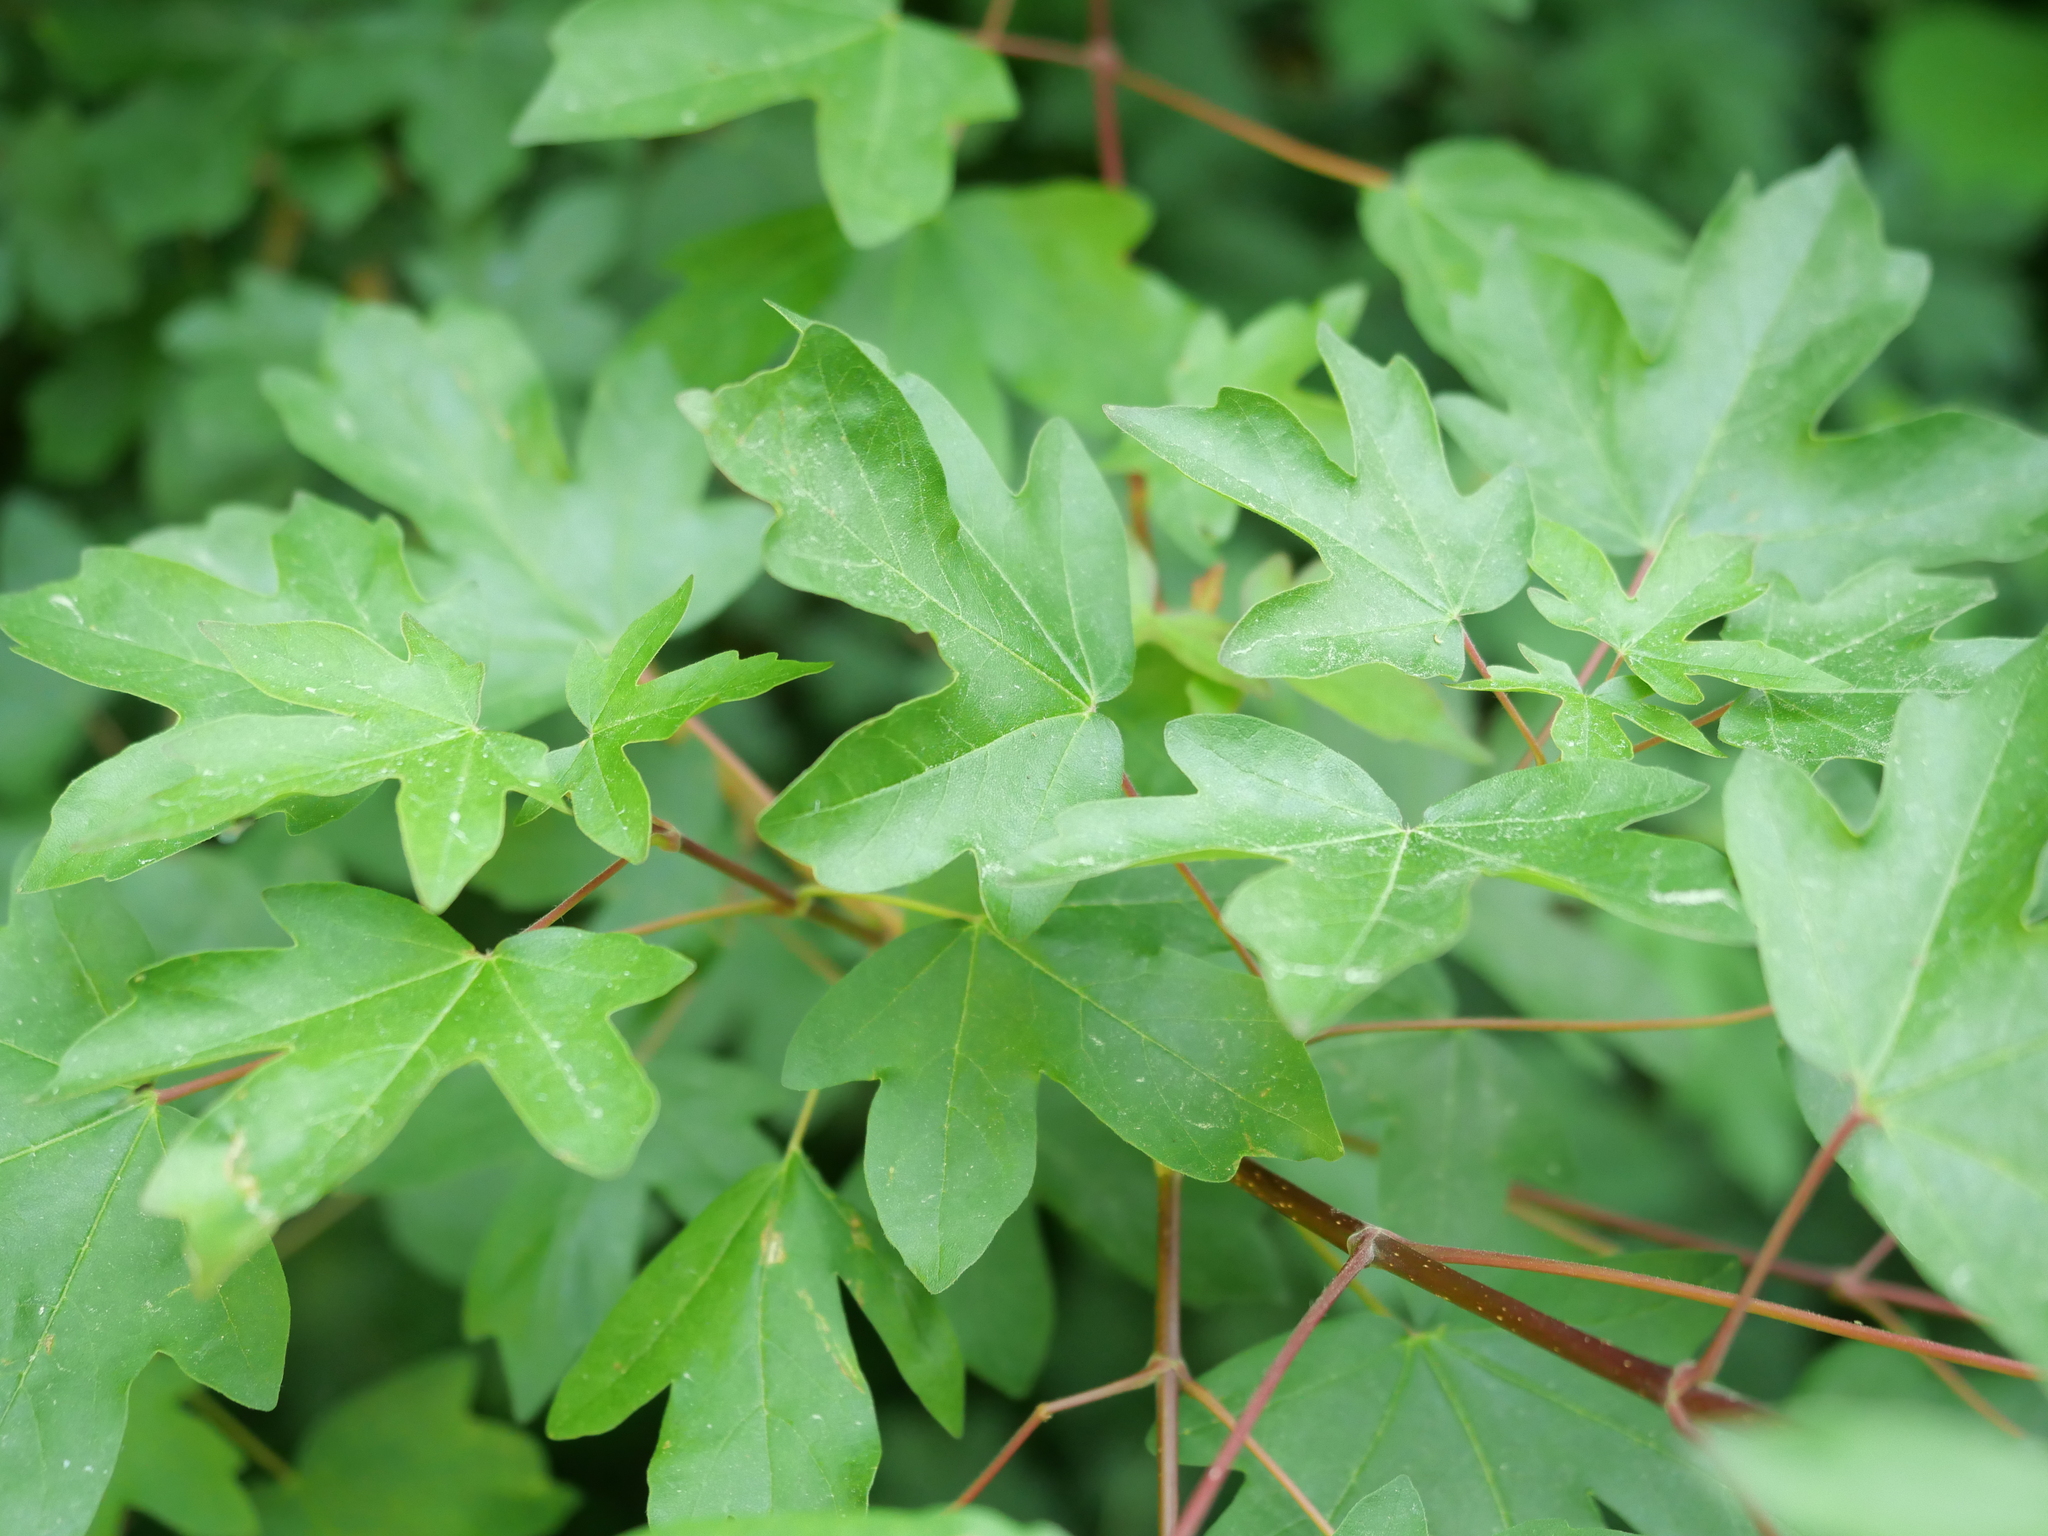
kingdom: Plantae
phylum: Tracheophyta
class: Magnoliopsida
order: Sapindales
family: Sapindaceae
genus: Acer
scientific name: Acer campestre
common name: Field maple
